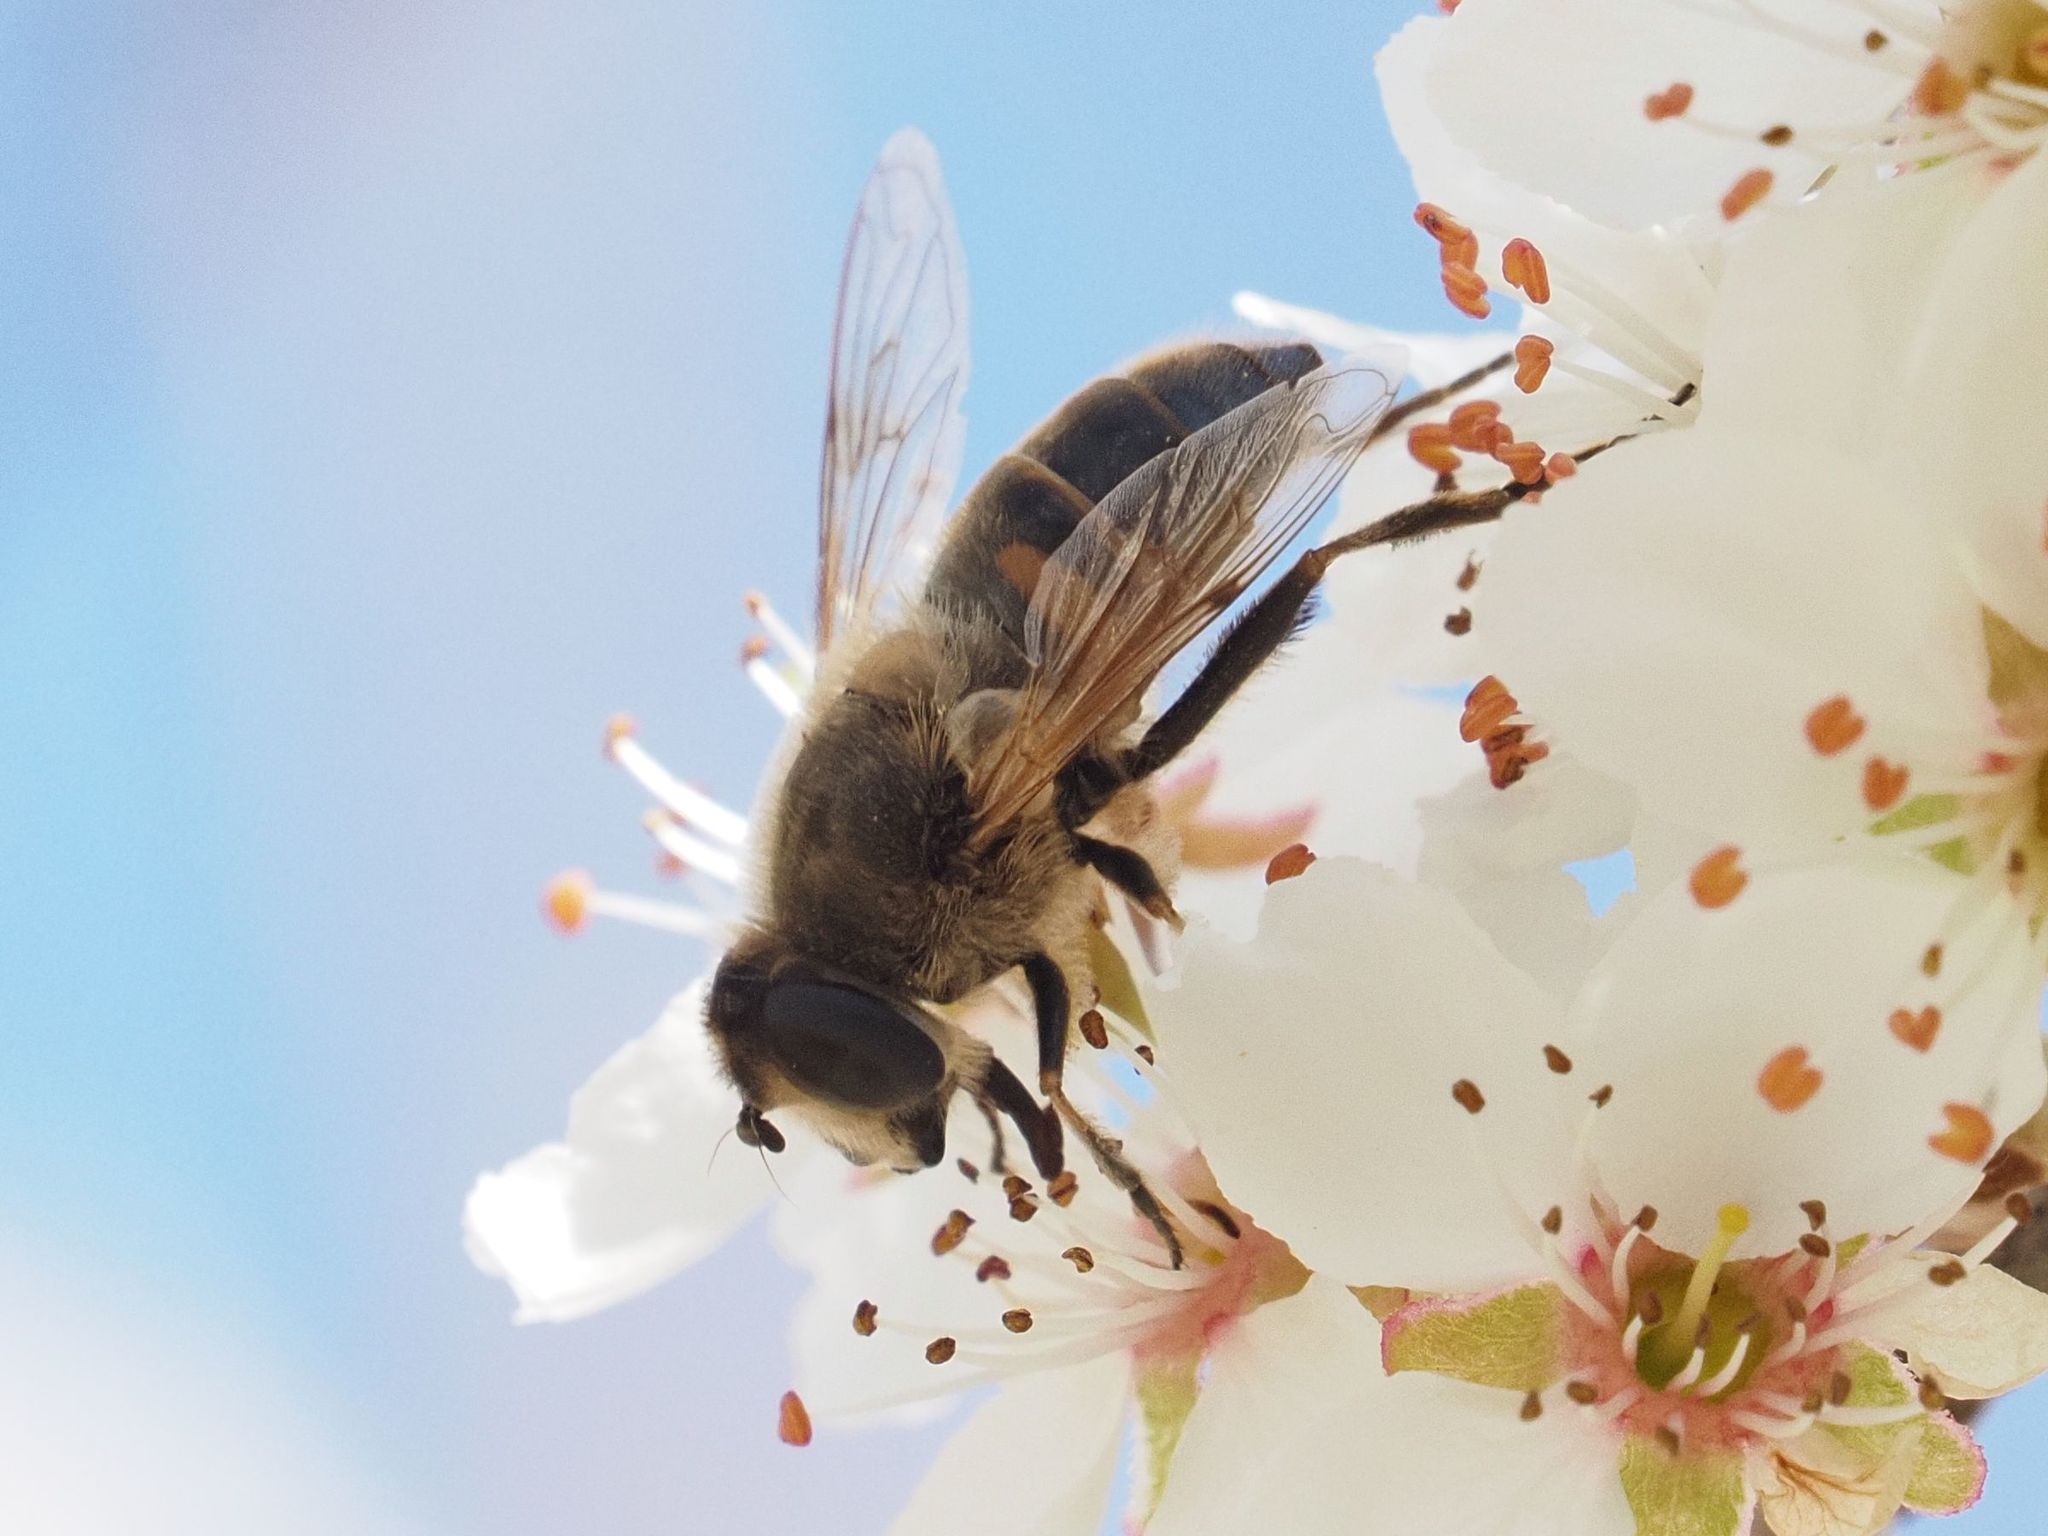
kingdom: Animalia
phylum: Arthropoda
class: Insecta
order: Diptera
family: Syrphidae
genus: Eristalis
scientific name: Eristalis tenax
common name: Drone fly
